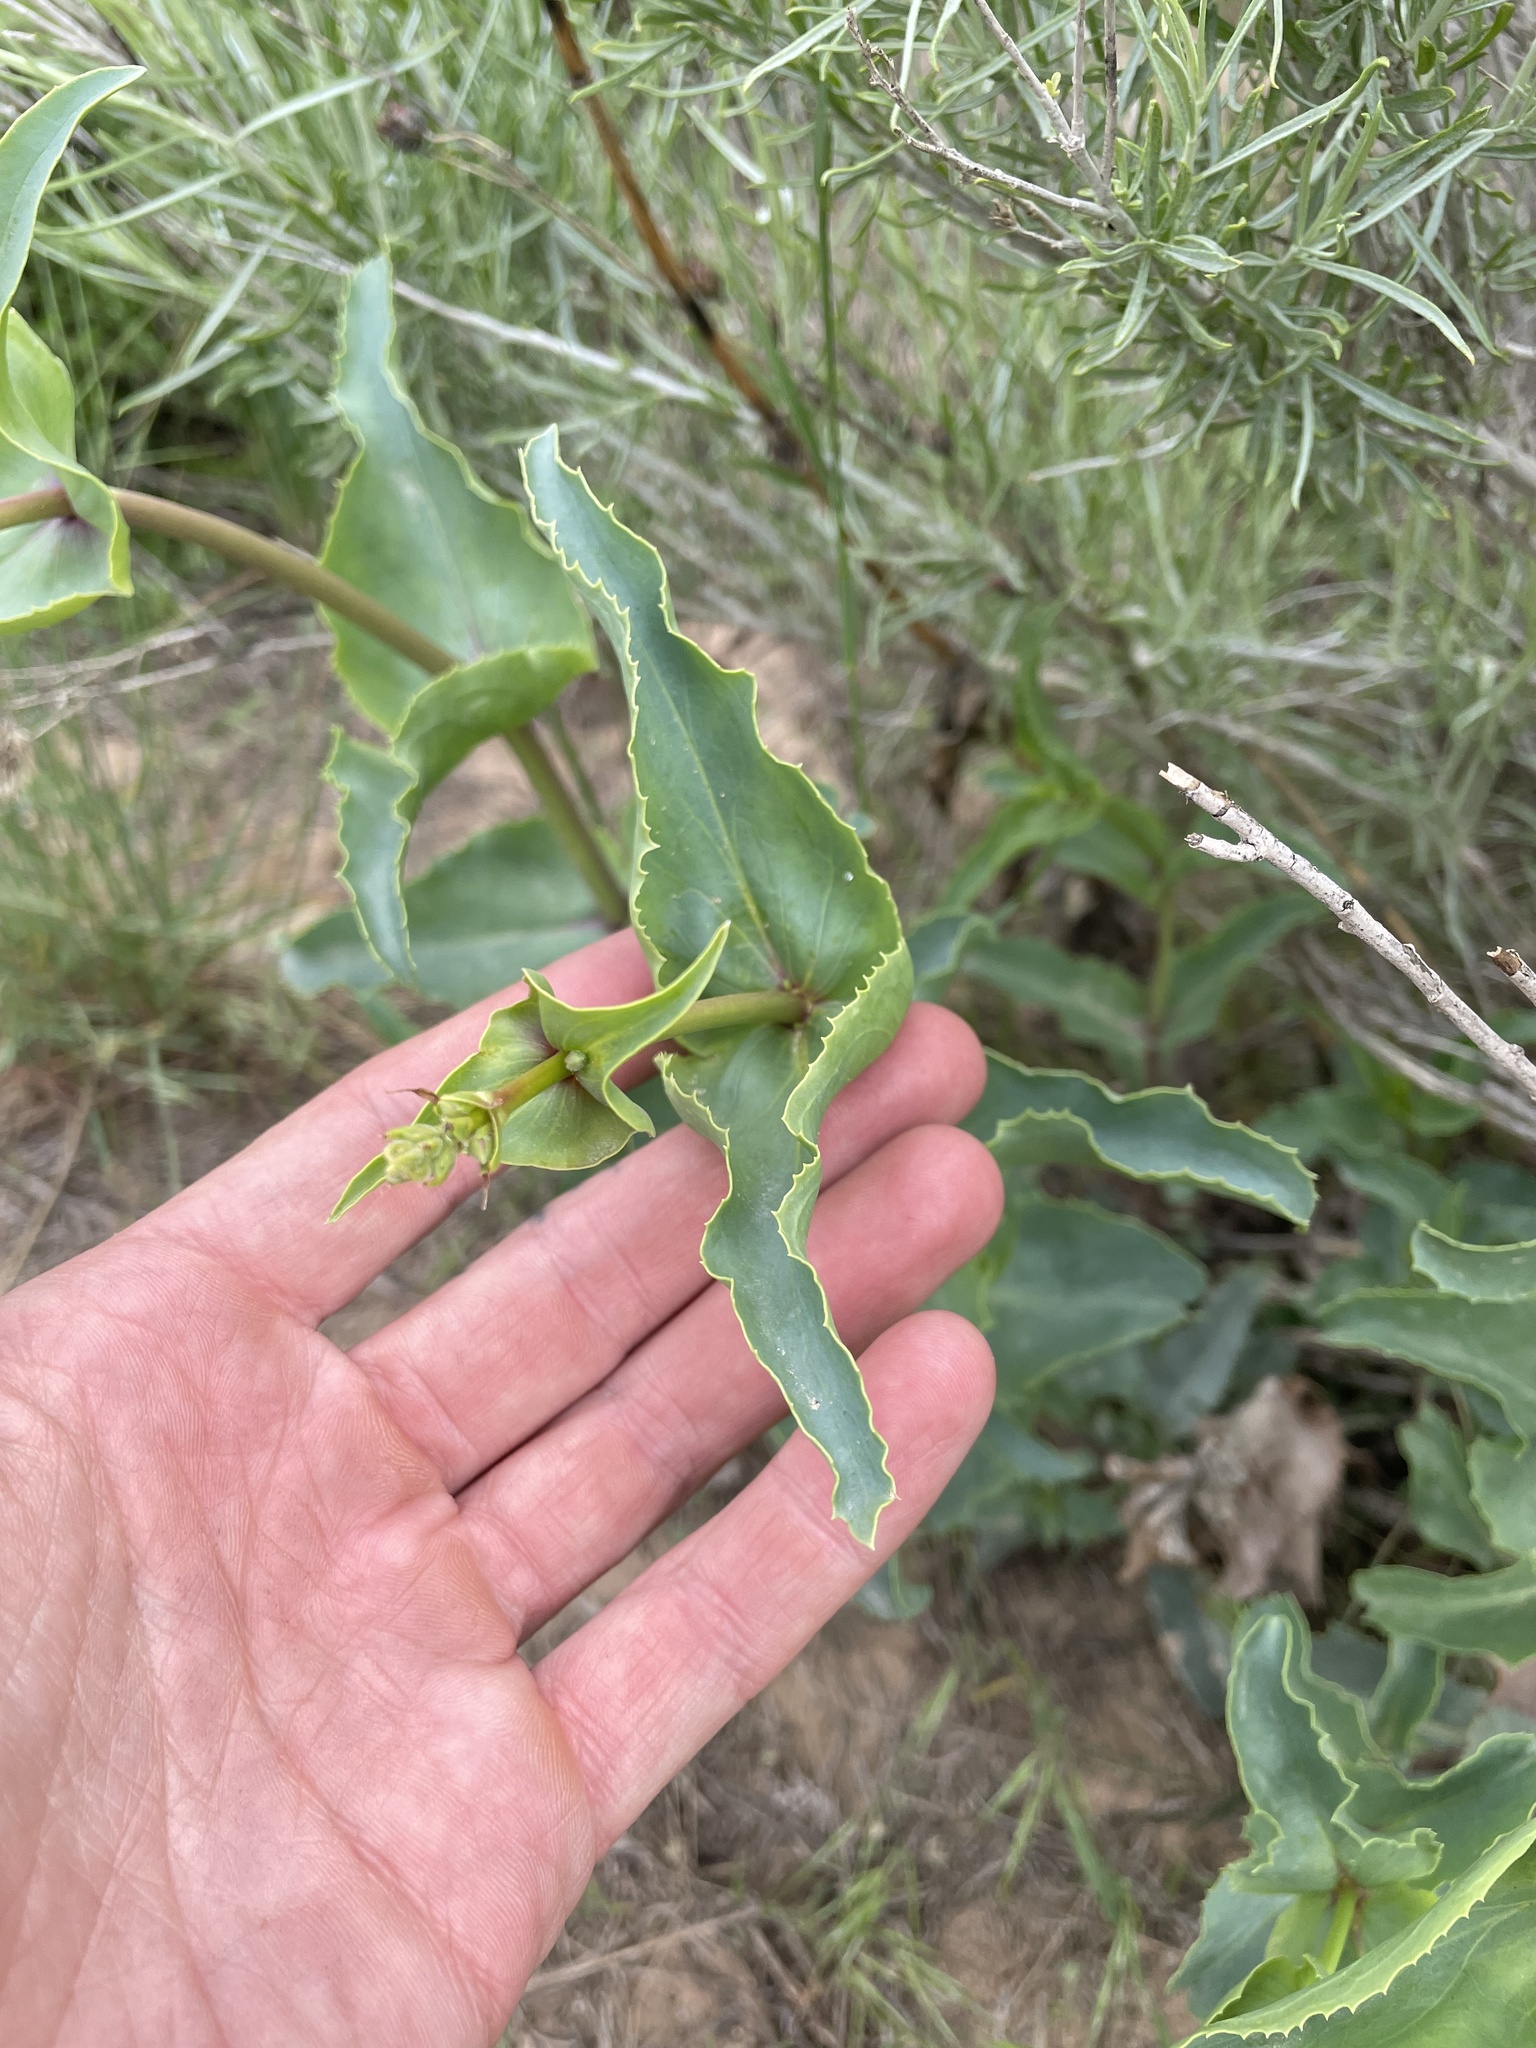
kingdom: Plantae
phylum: Tracheophyta
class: Magnoliopsida
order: Lamiales
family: Plantaginaceae
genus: Penstemon
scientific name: Penstemon palmeri
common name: Palmer penstemon
